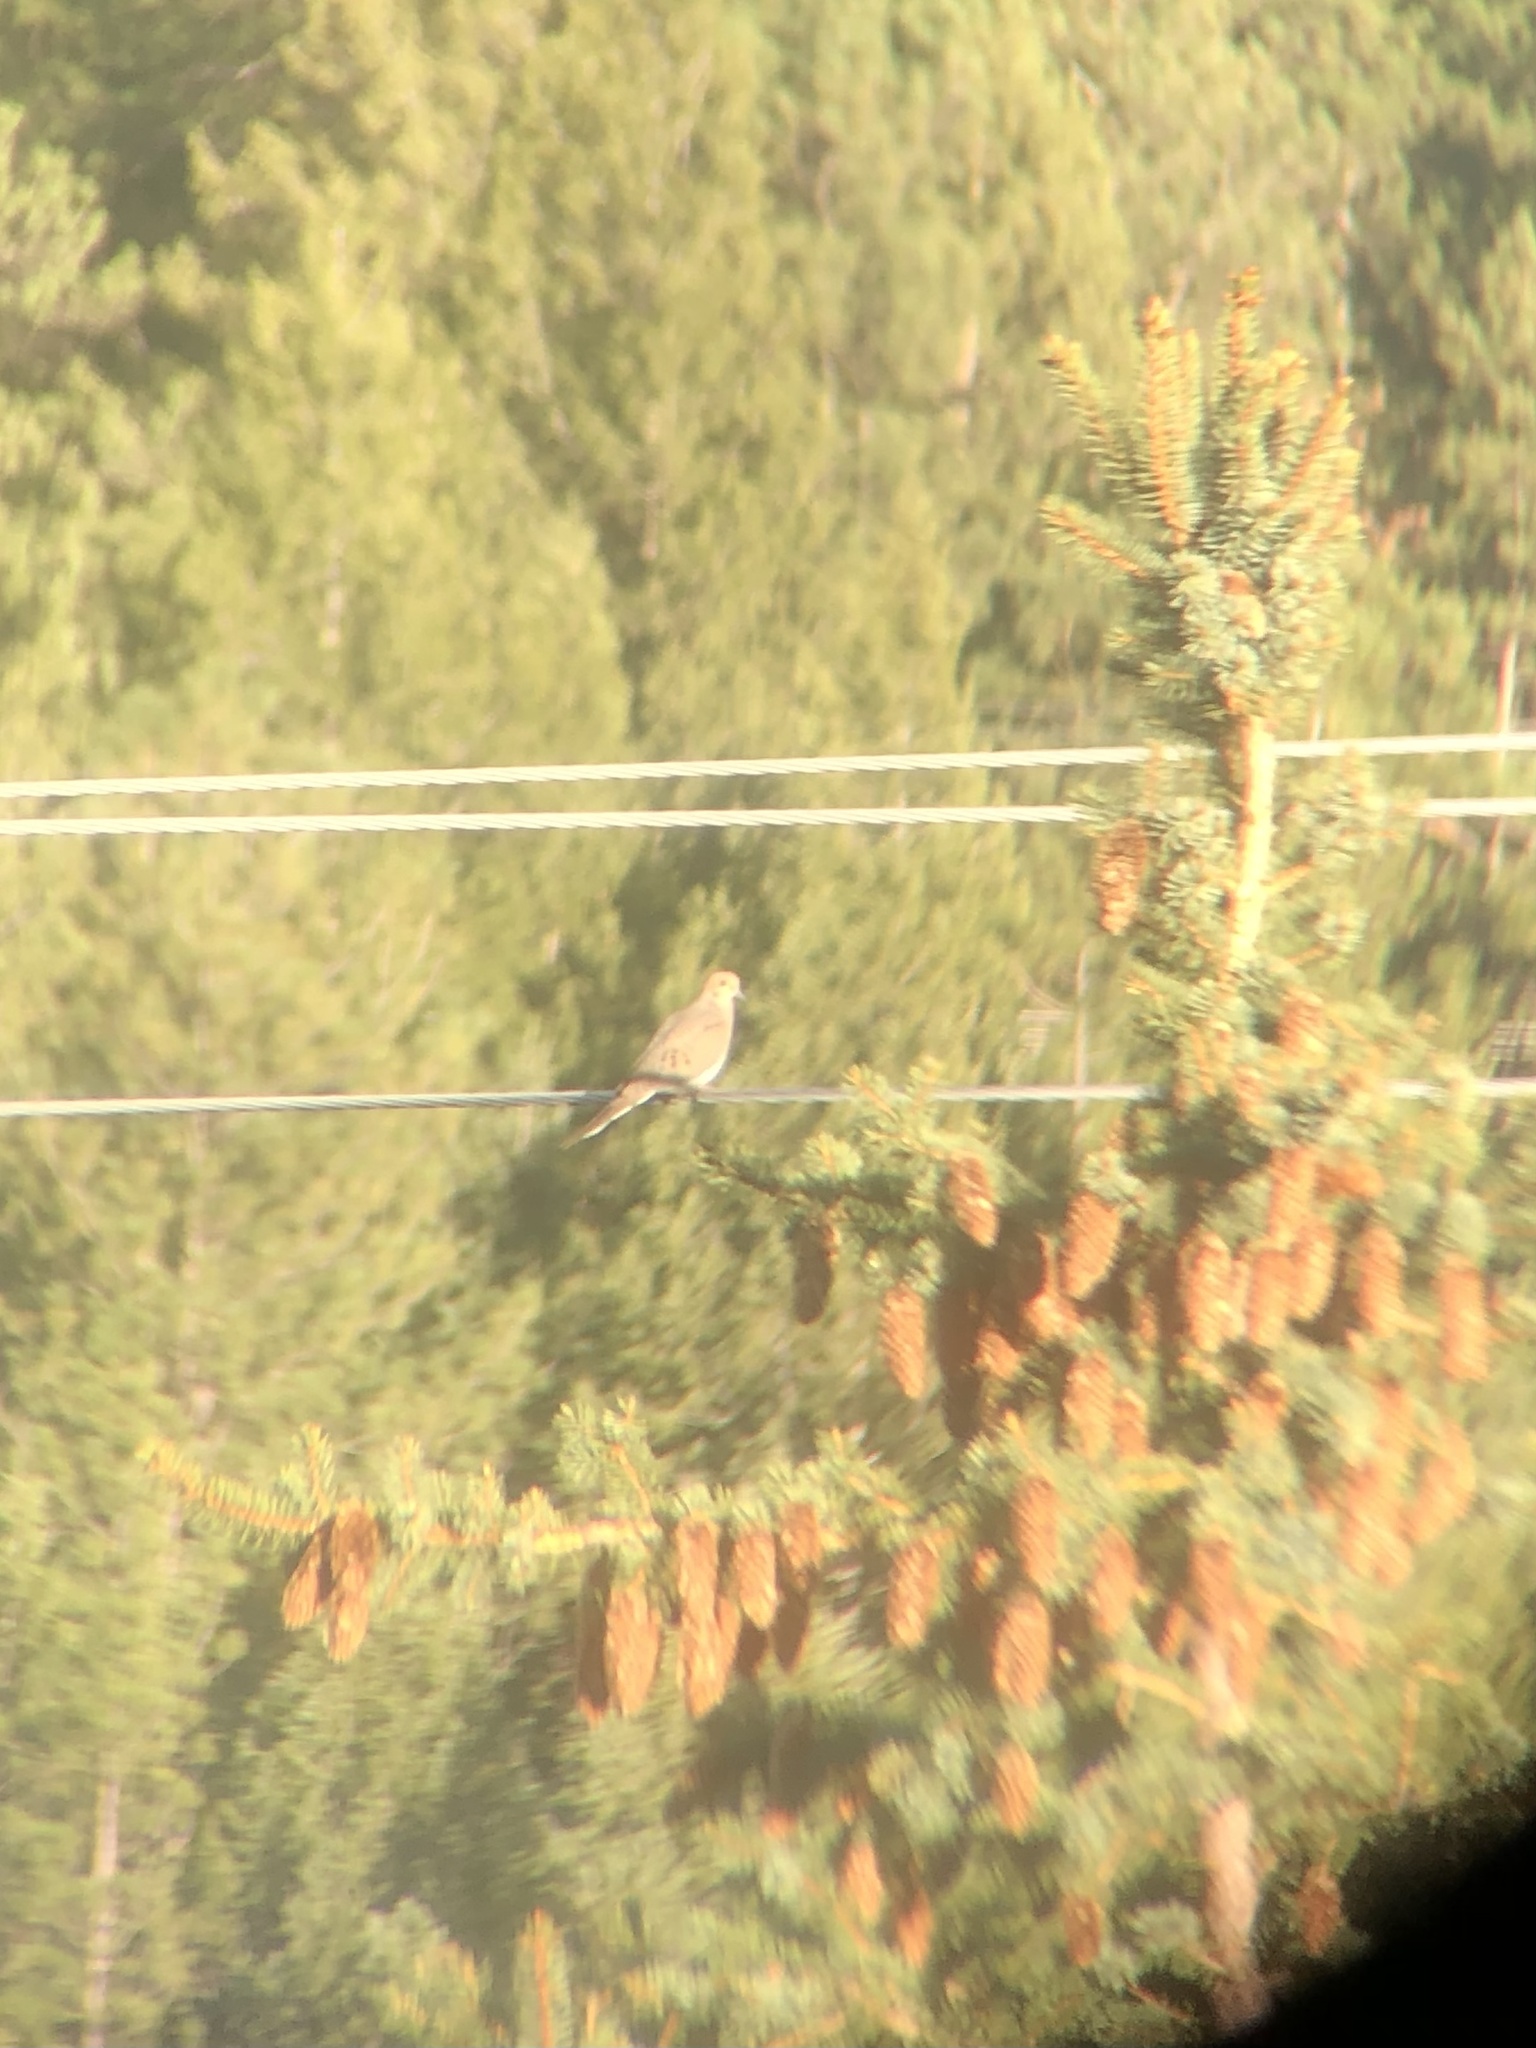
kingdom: Animalia
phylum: Chordata
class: Aves
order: Columbiformes
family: Columbidae
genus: Zenaida
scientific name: Zenaida macroura
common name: Mourning dove
